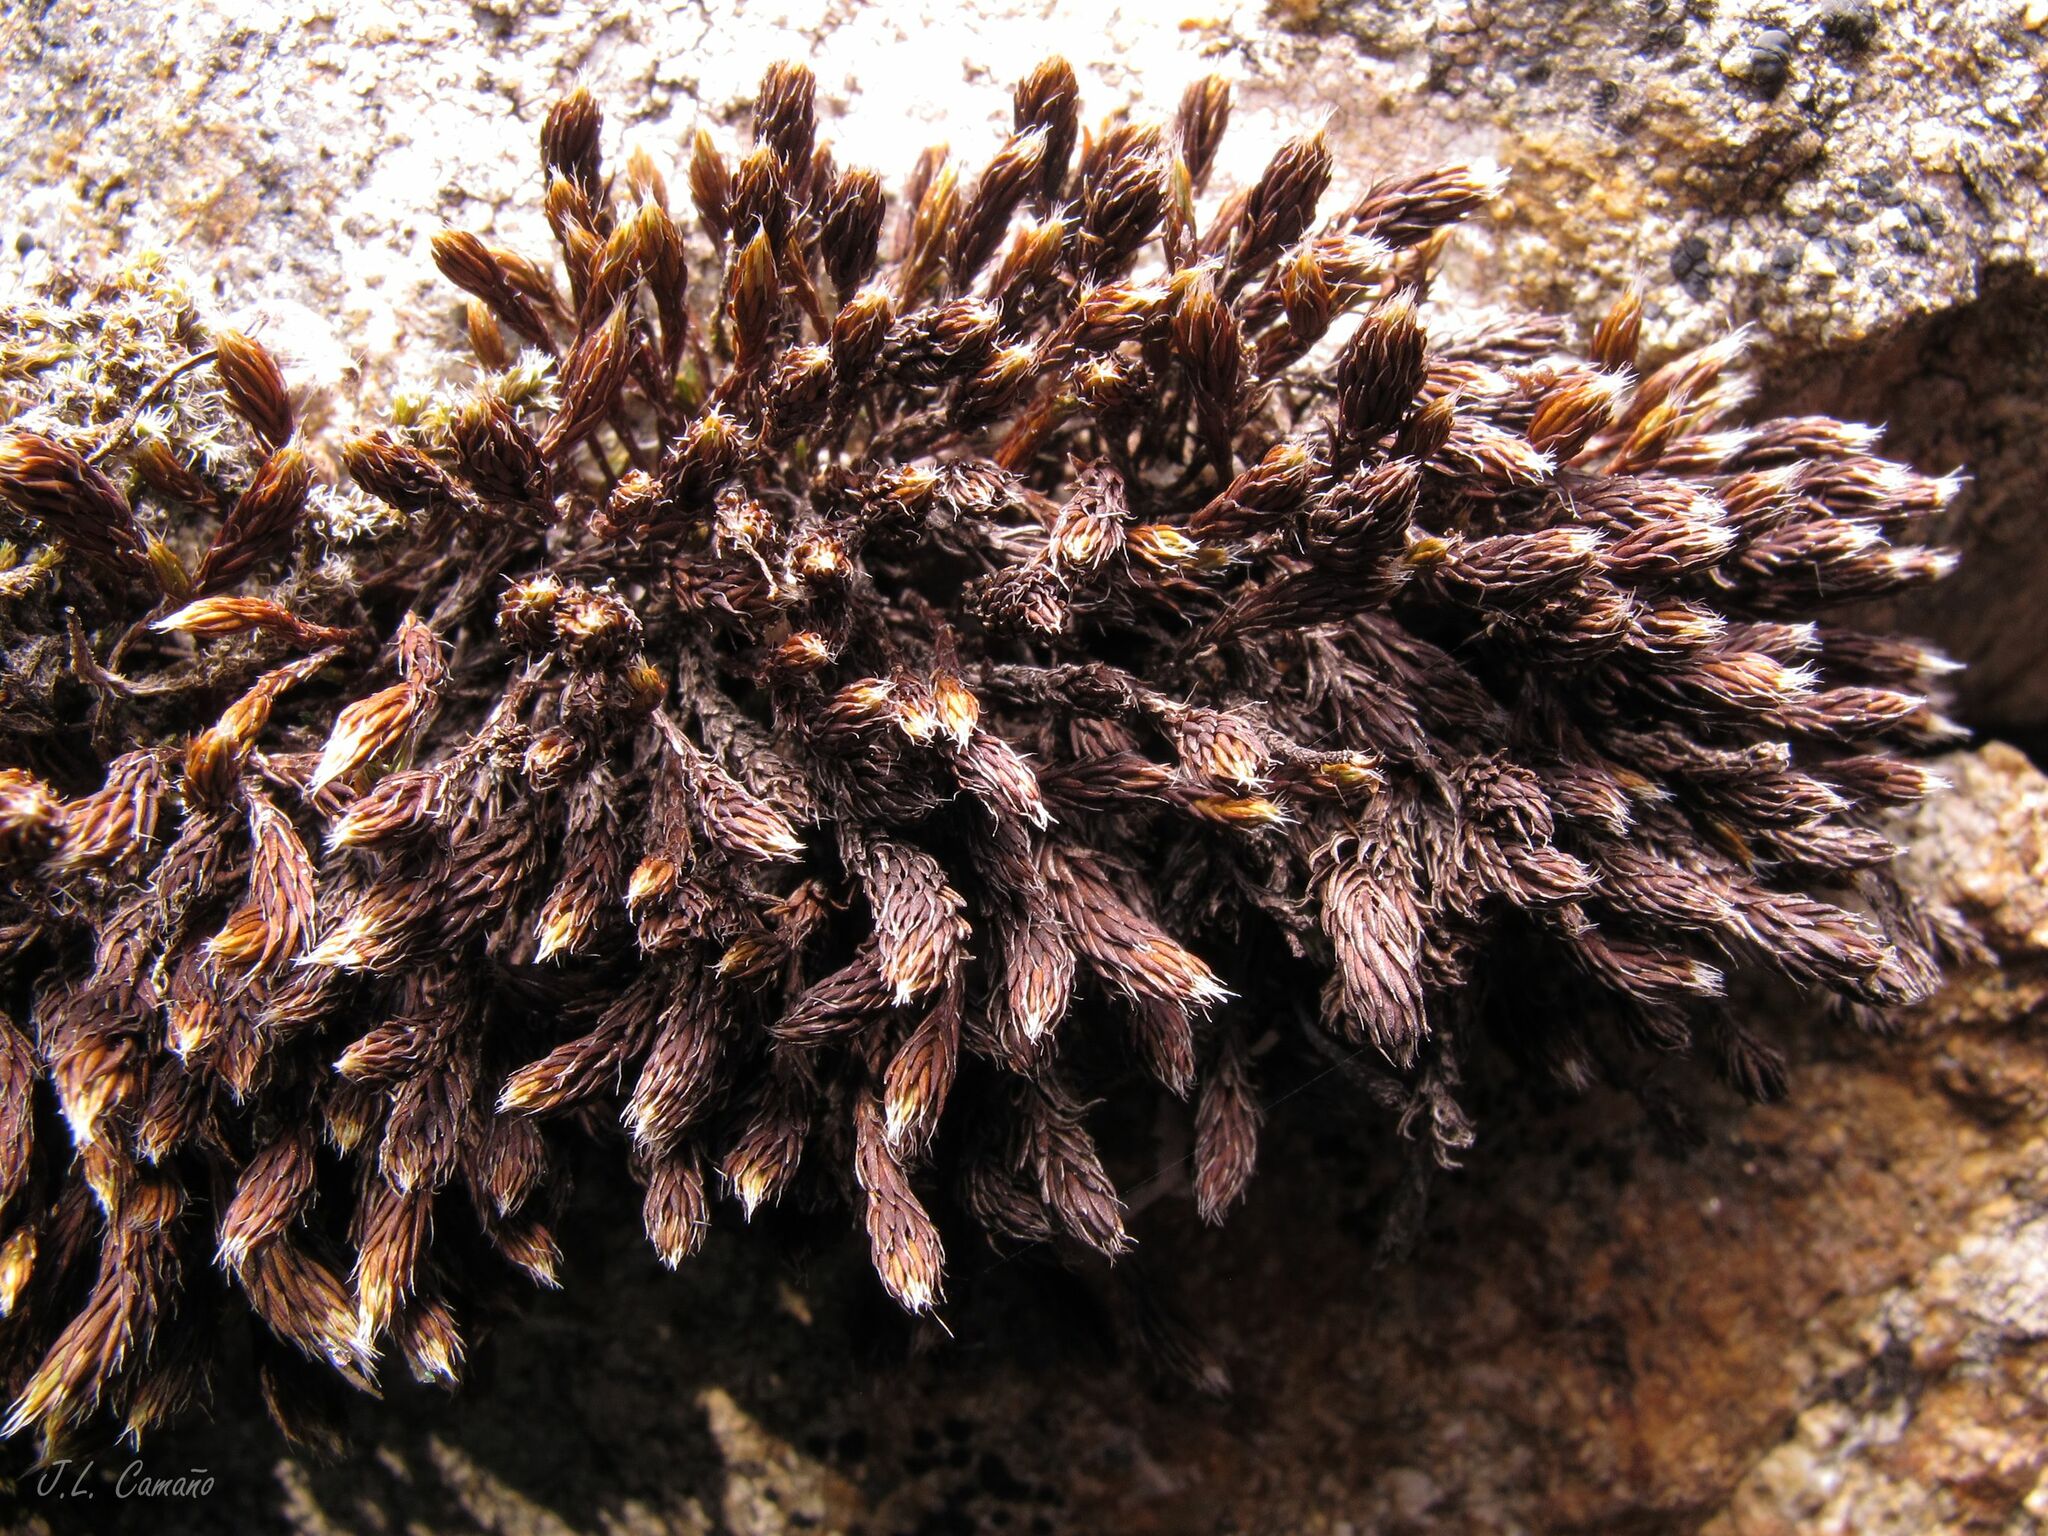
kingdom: Plantae
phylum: Bryophyta
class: Polytrichopsida
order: Polytrichales
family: Polytrichaceae
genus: Polytrichum
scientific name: Polytrichum piliferum
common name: Bristly haircap
